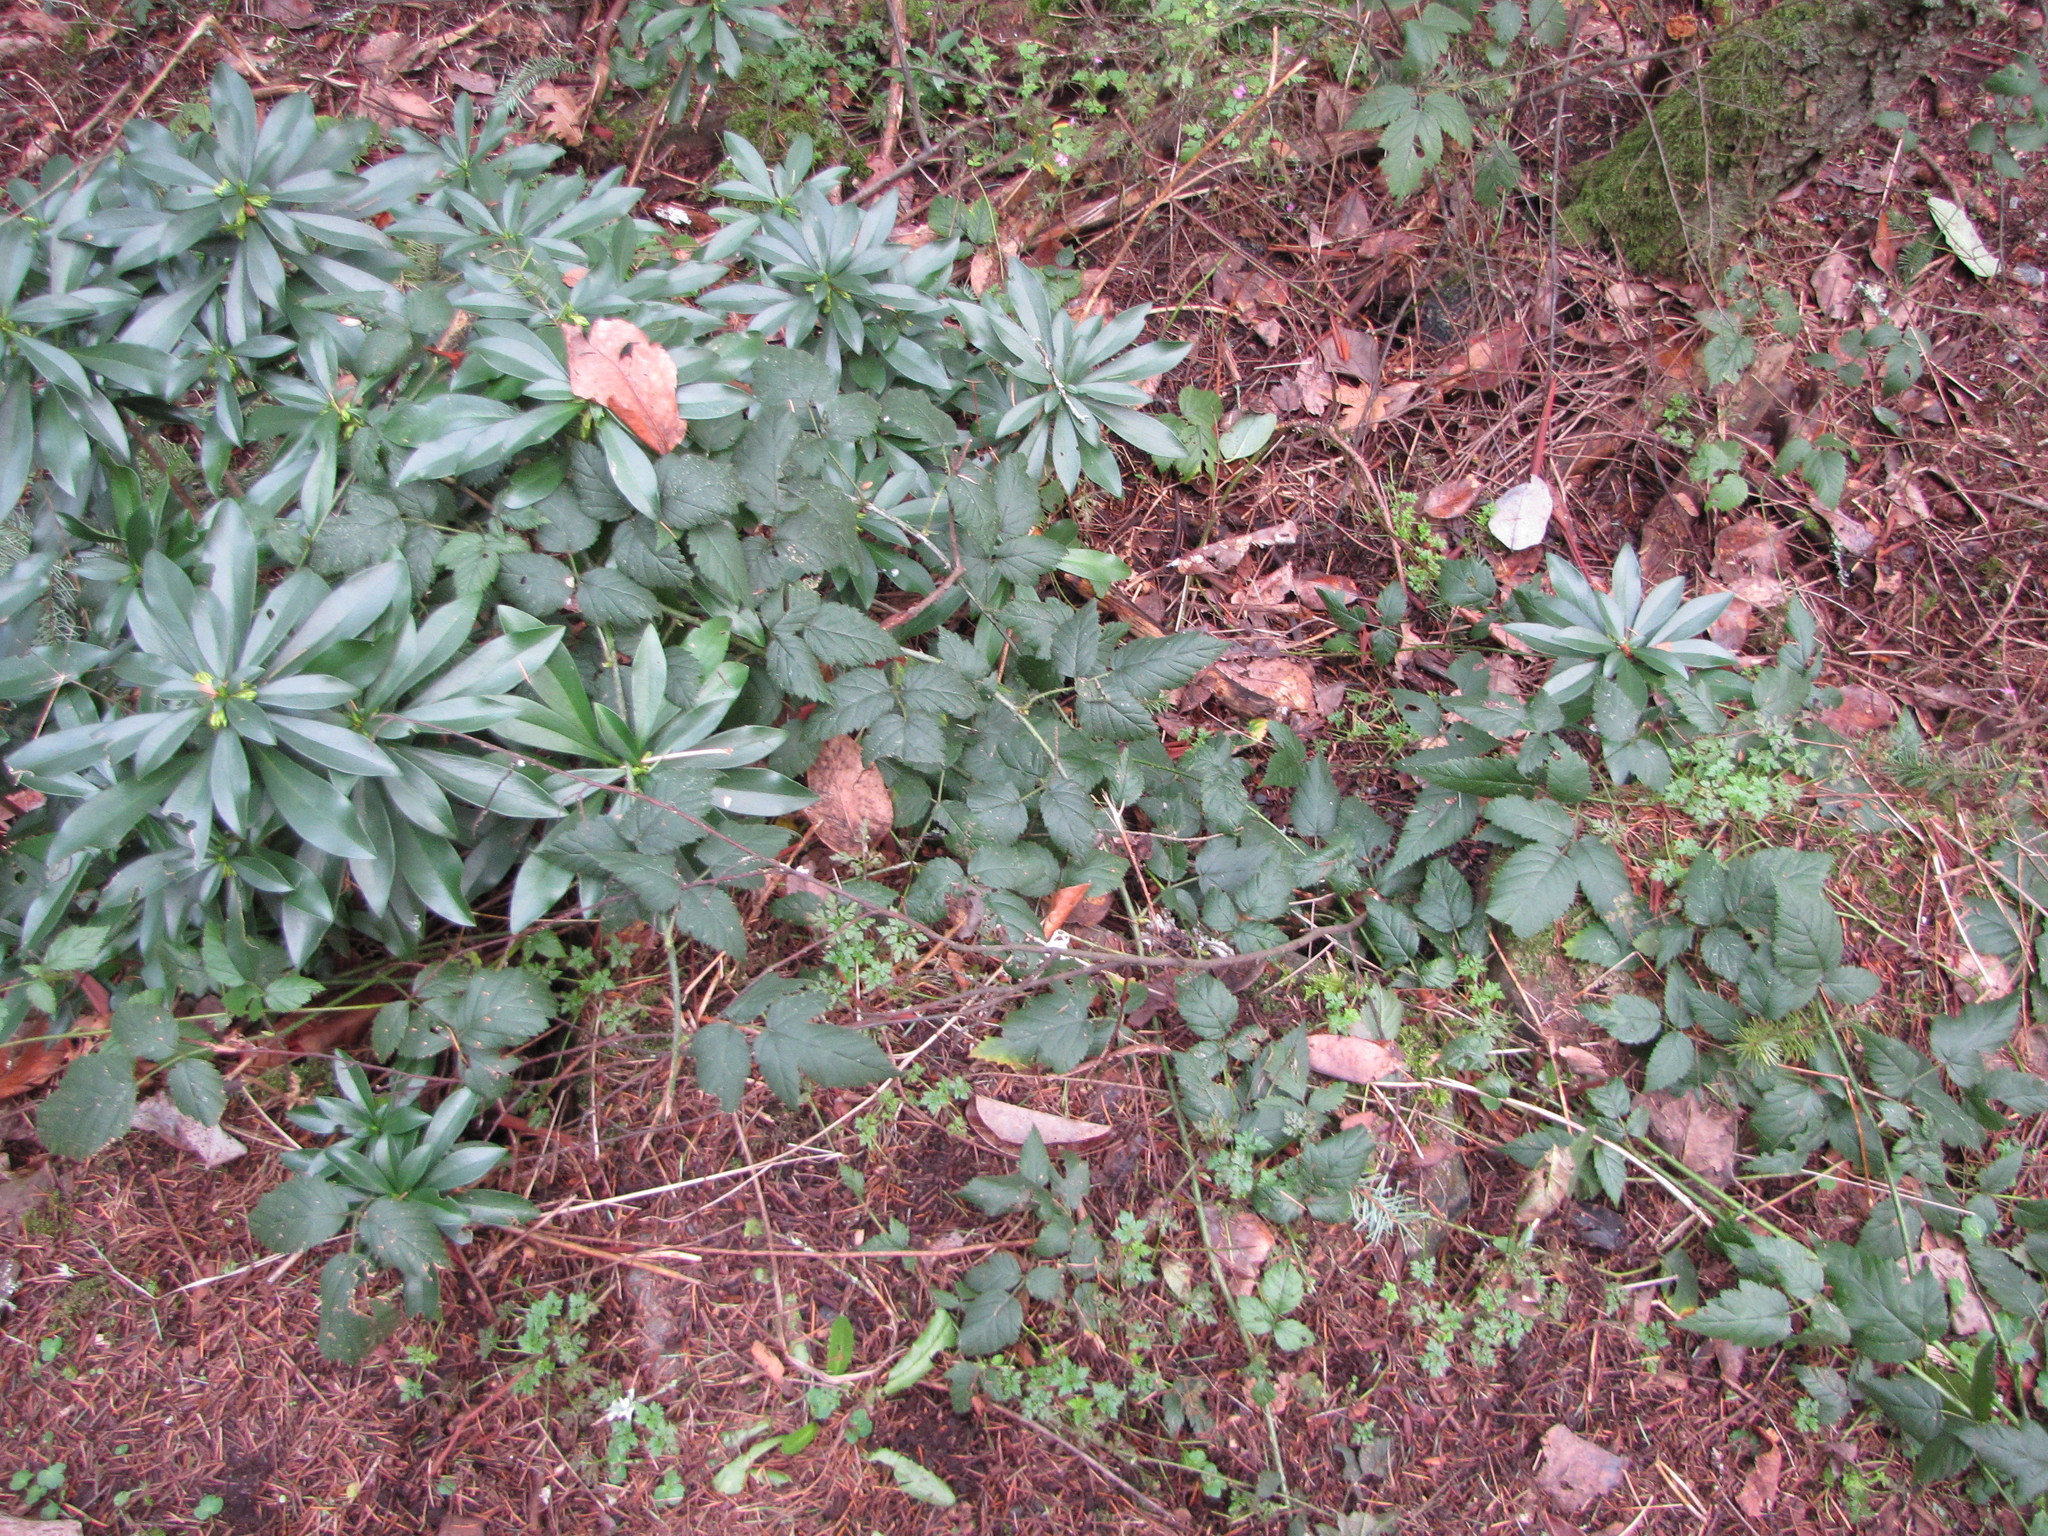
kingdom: Plantae
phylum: Tracheophyta
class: Magnoliopsida
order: Rosales
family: Rosaceae
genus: Rubus
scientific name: Rubus ursinus
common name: Pacific blackberry
